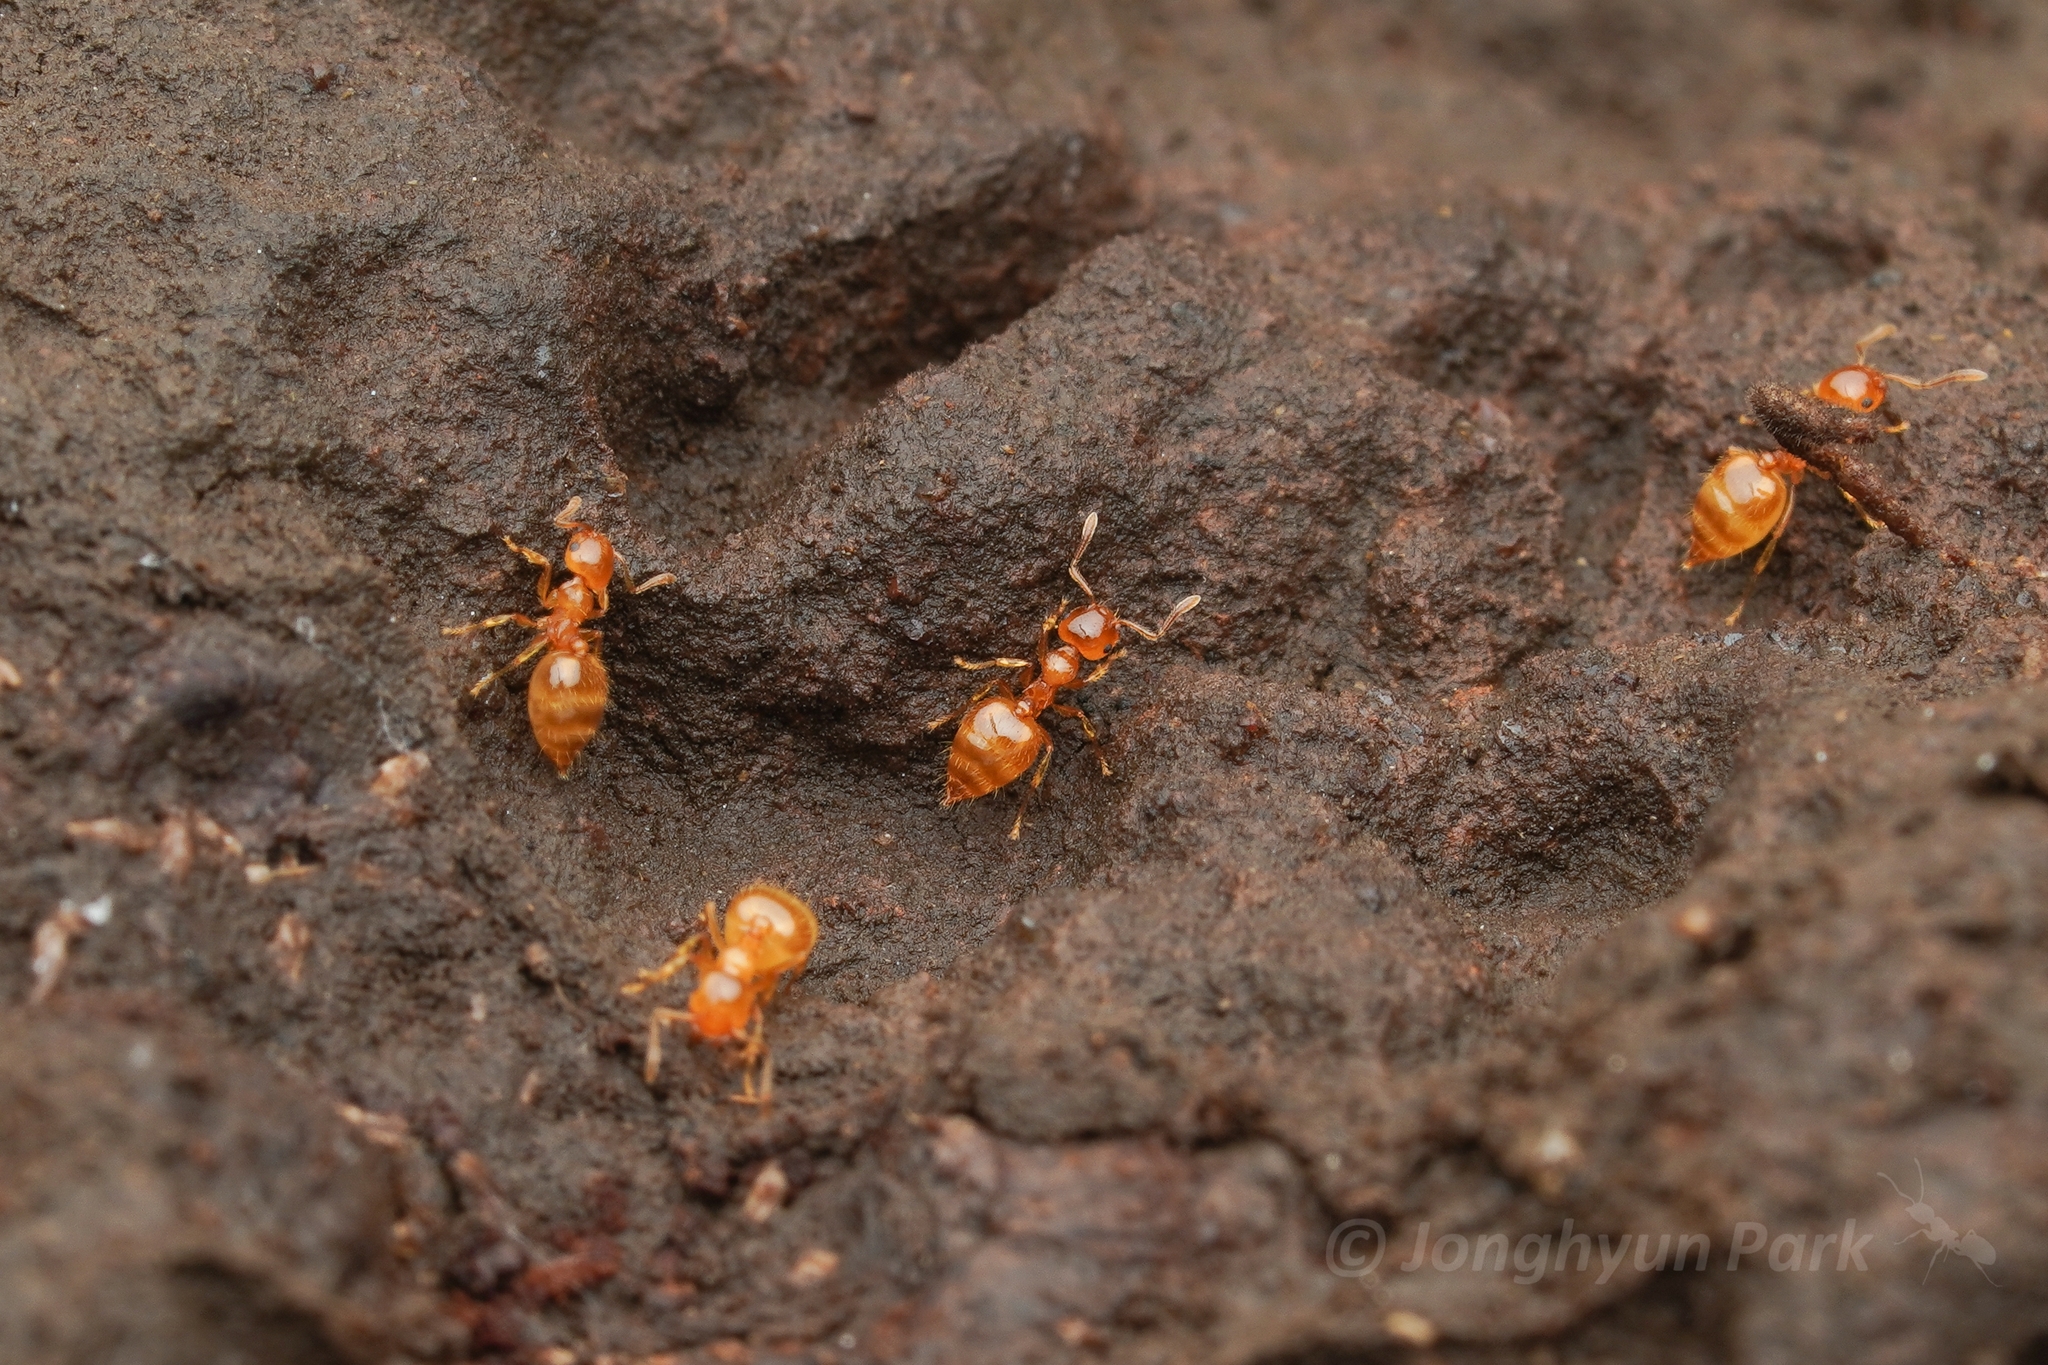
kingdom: Animalia
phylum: Arthropoda
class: Insecta
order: Hymenoptera
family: Formicidae
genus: Crematogaster
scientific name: Crematogaster osakensis
